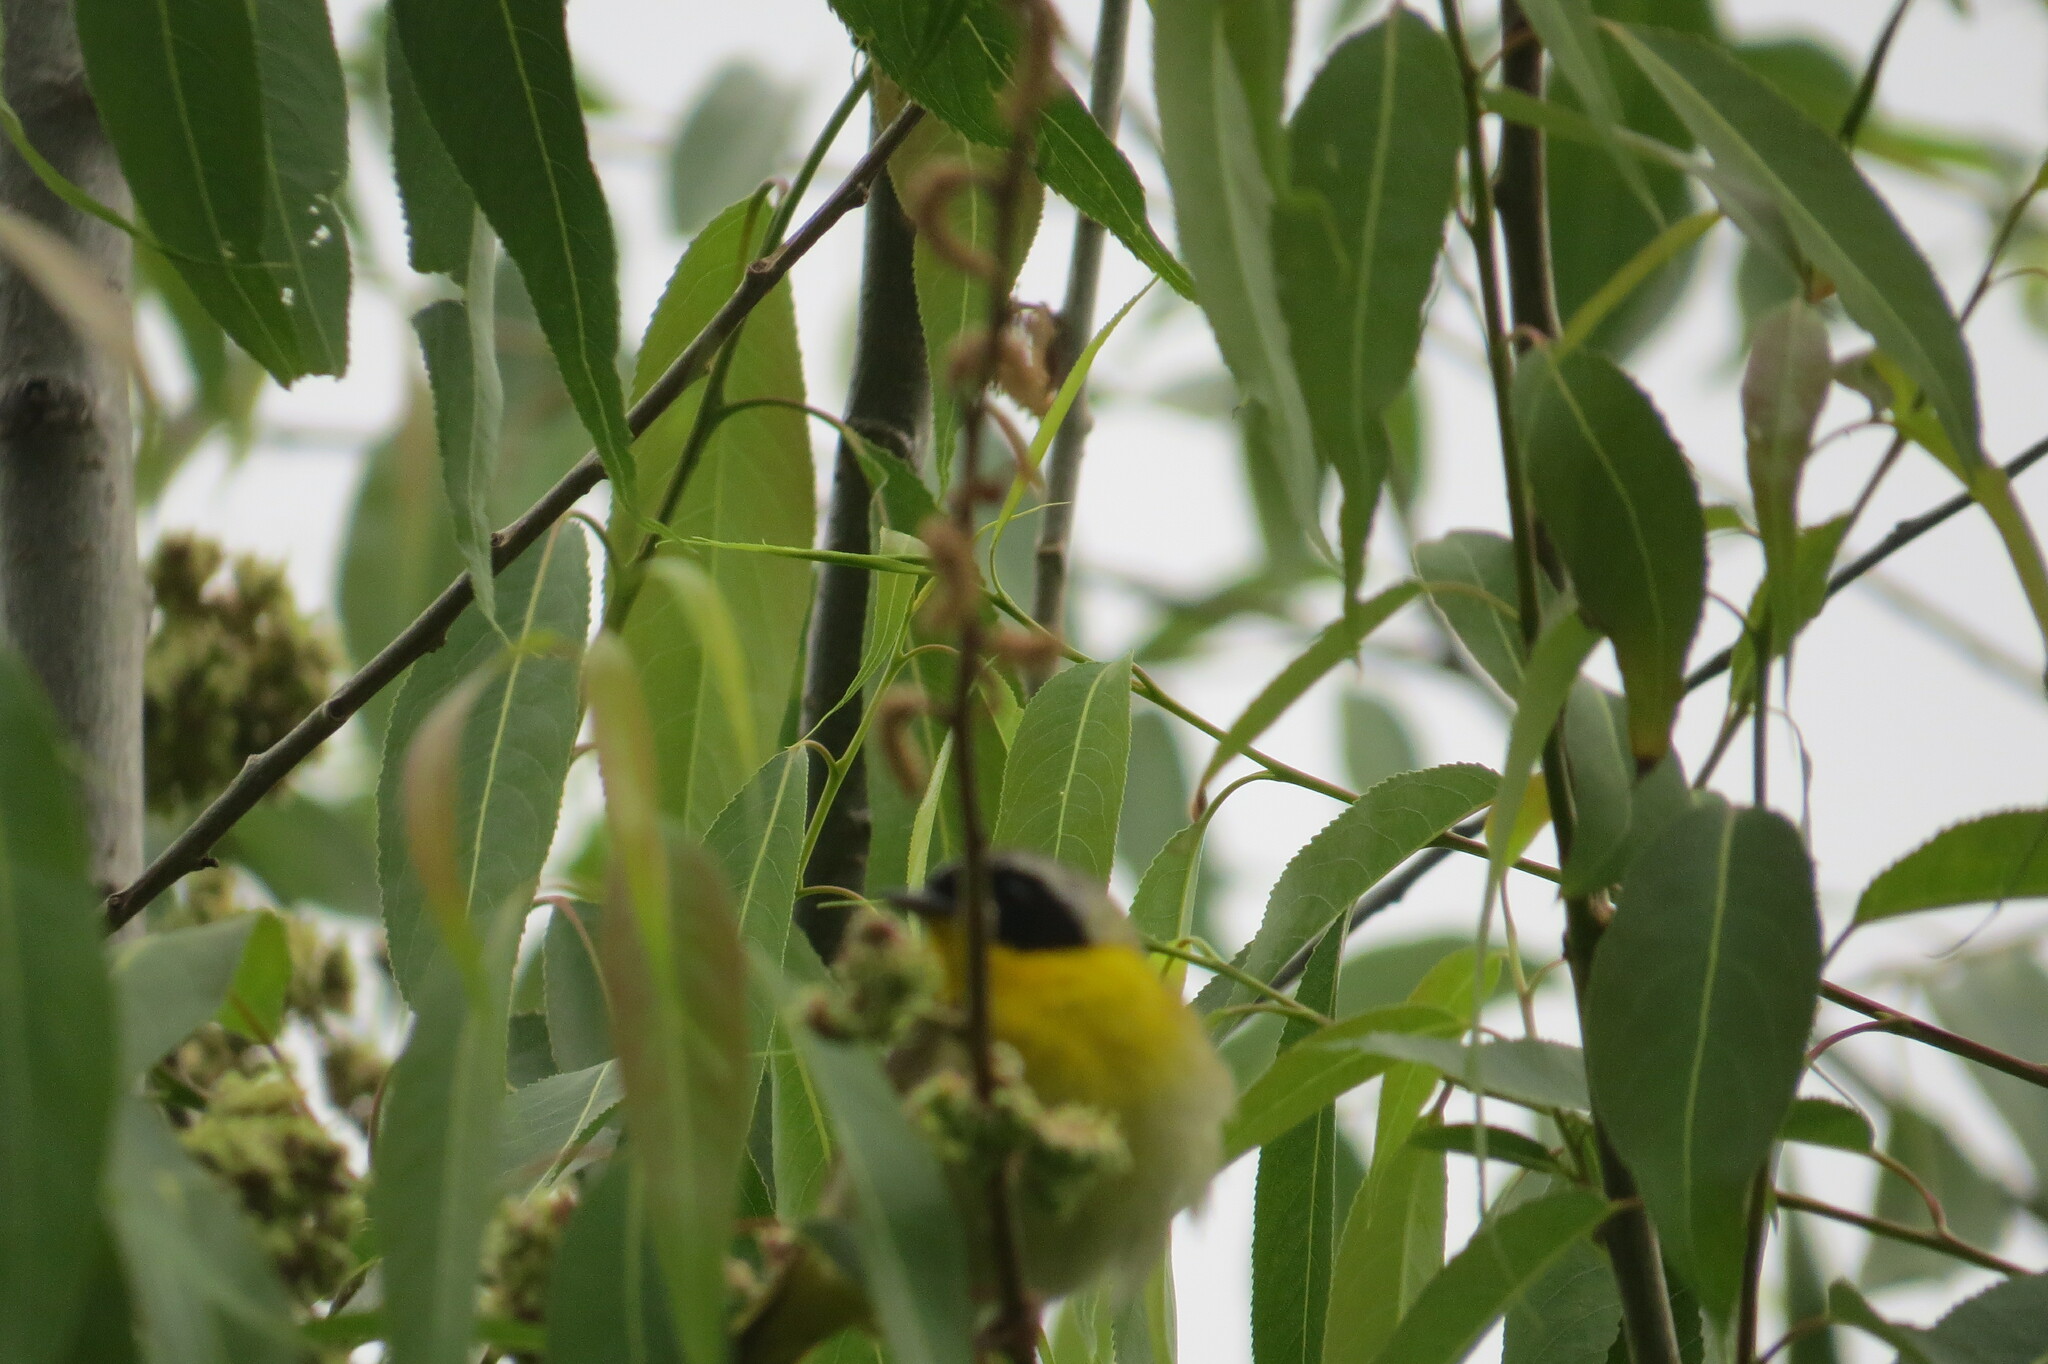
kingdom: Animalia
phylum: Chordata
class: Aves
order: Passeriformes
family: Parulidae
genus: Geothlypis
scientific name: Geothlypis trichas
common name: Common yellowthroat
